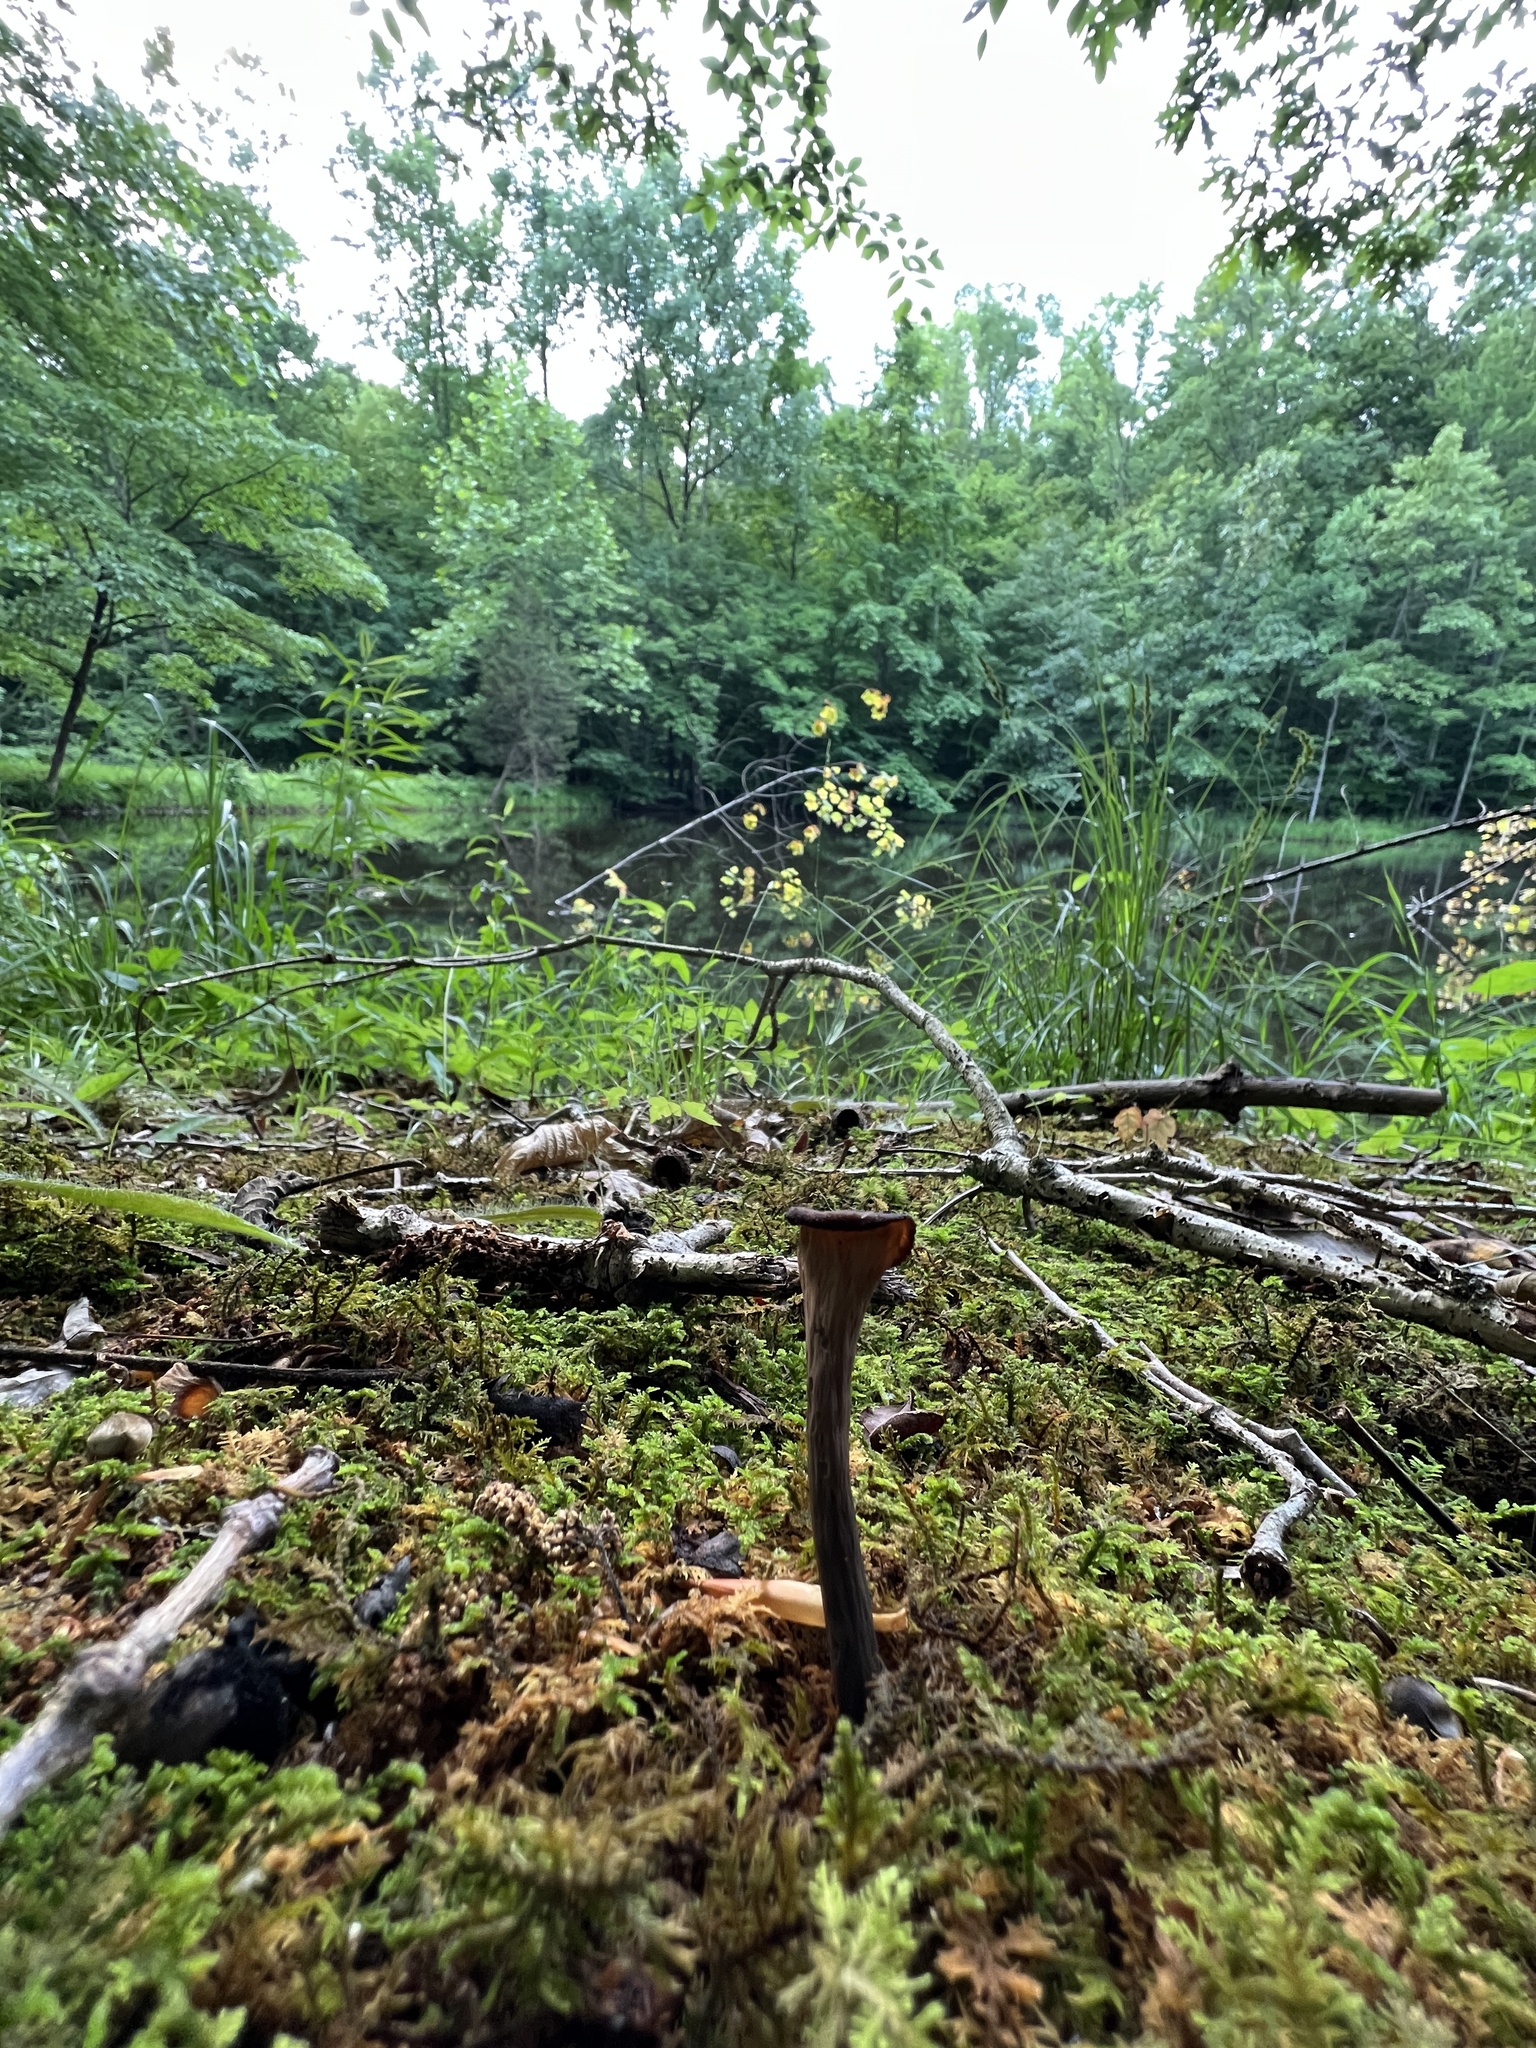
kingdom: Fungi
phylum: Basidiomycota
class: Agaricomycetes
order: Cantharellales
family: Hydnaceae
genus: Craterellus
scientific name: Craterellus cornucopioides
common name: Horn of plenty
